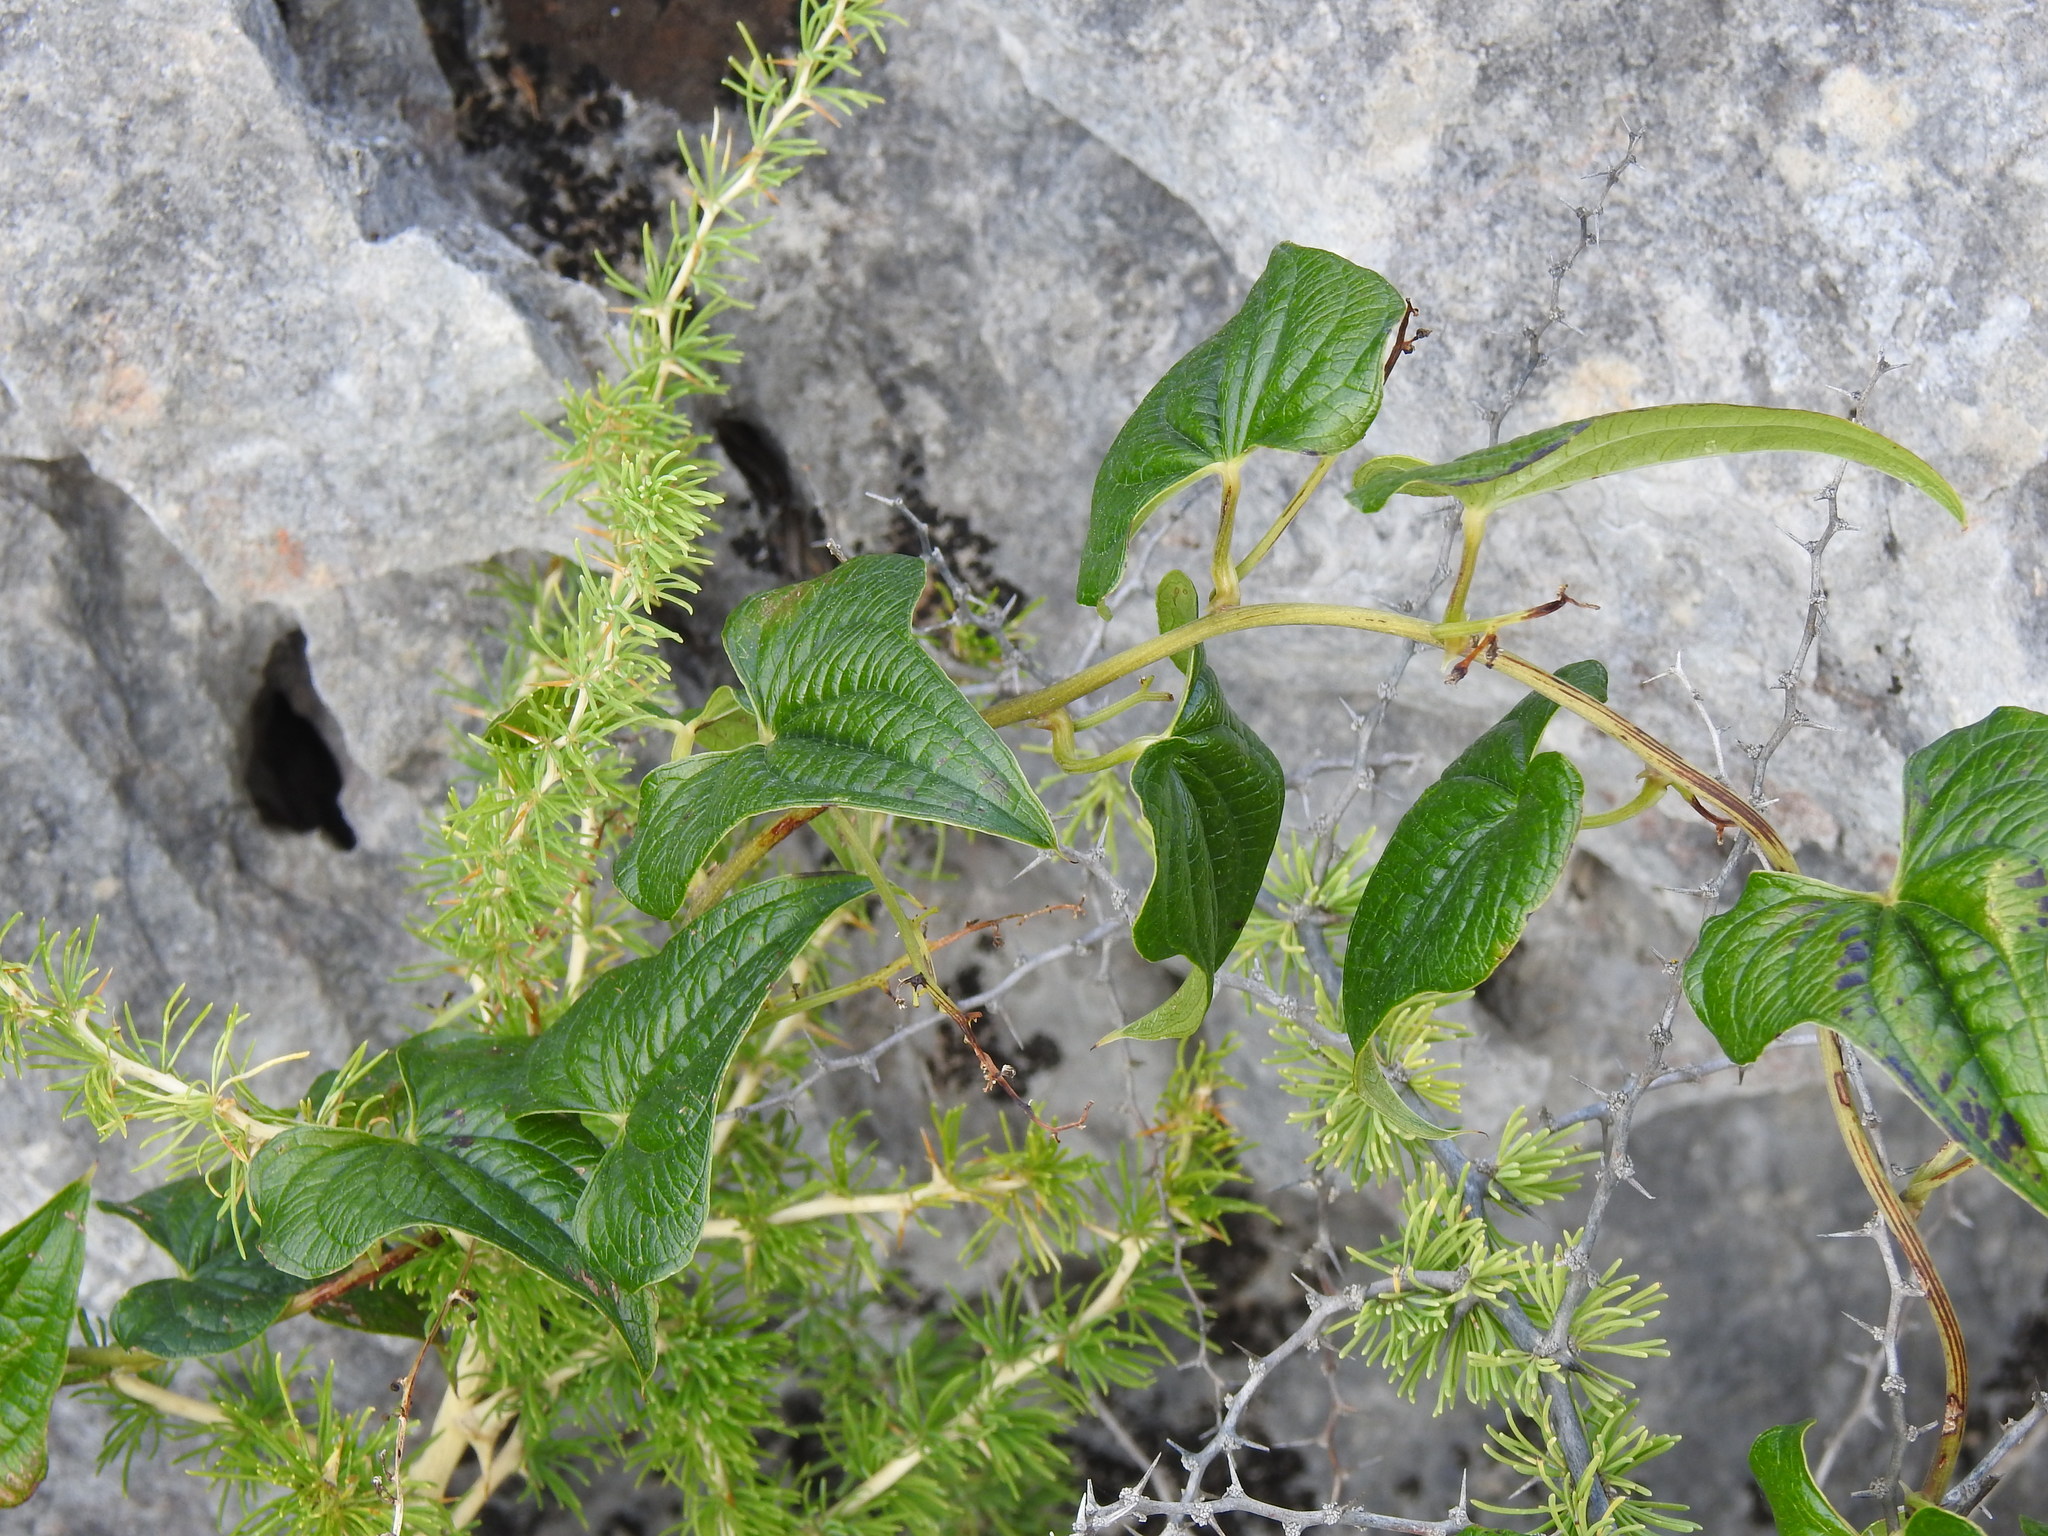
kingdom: Plantae
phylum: Tracheophyta
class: Liliopsida
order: Dioscoreales
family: Dioscoreaceae
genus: Dioscorea
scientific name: Dioscorea communis
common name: Black-bindweed
